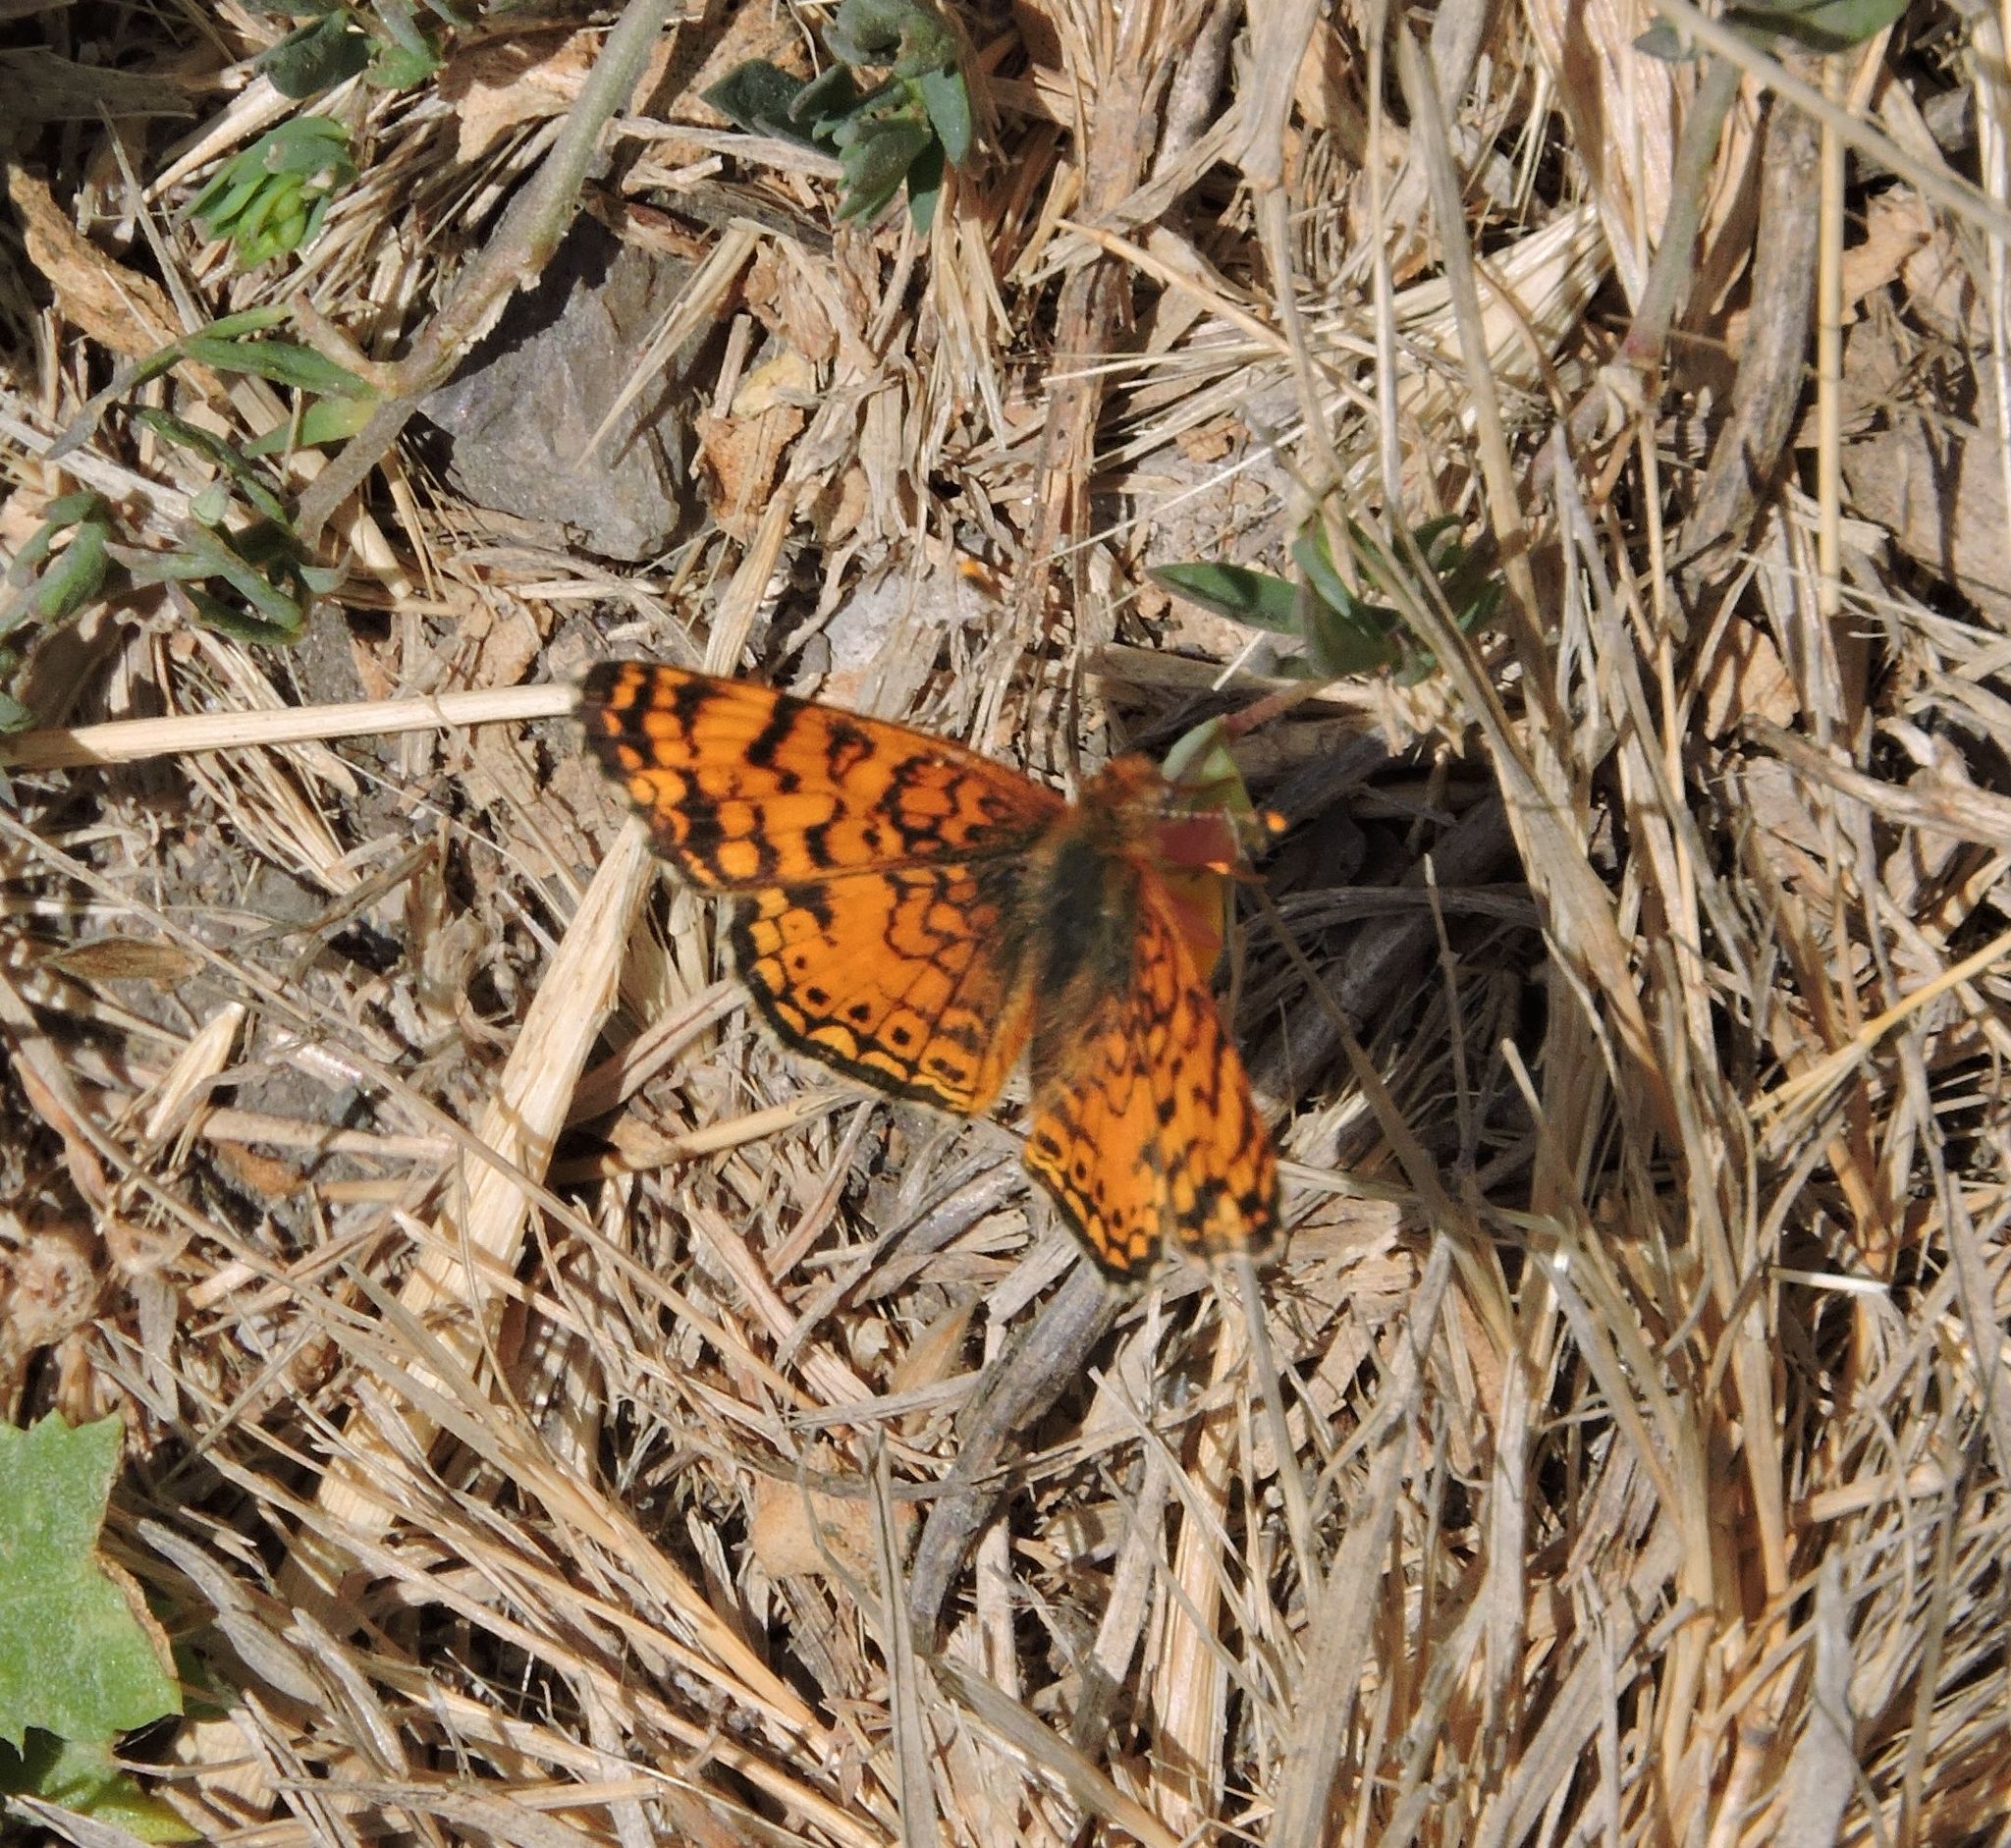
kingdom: Animalia
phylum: Arthropoda
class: Insecta
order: Lepidoptera
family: Nymphalidae
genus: Eresia
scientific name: Eresia aveyrona
